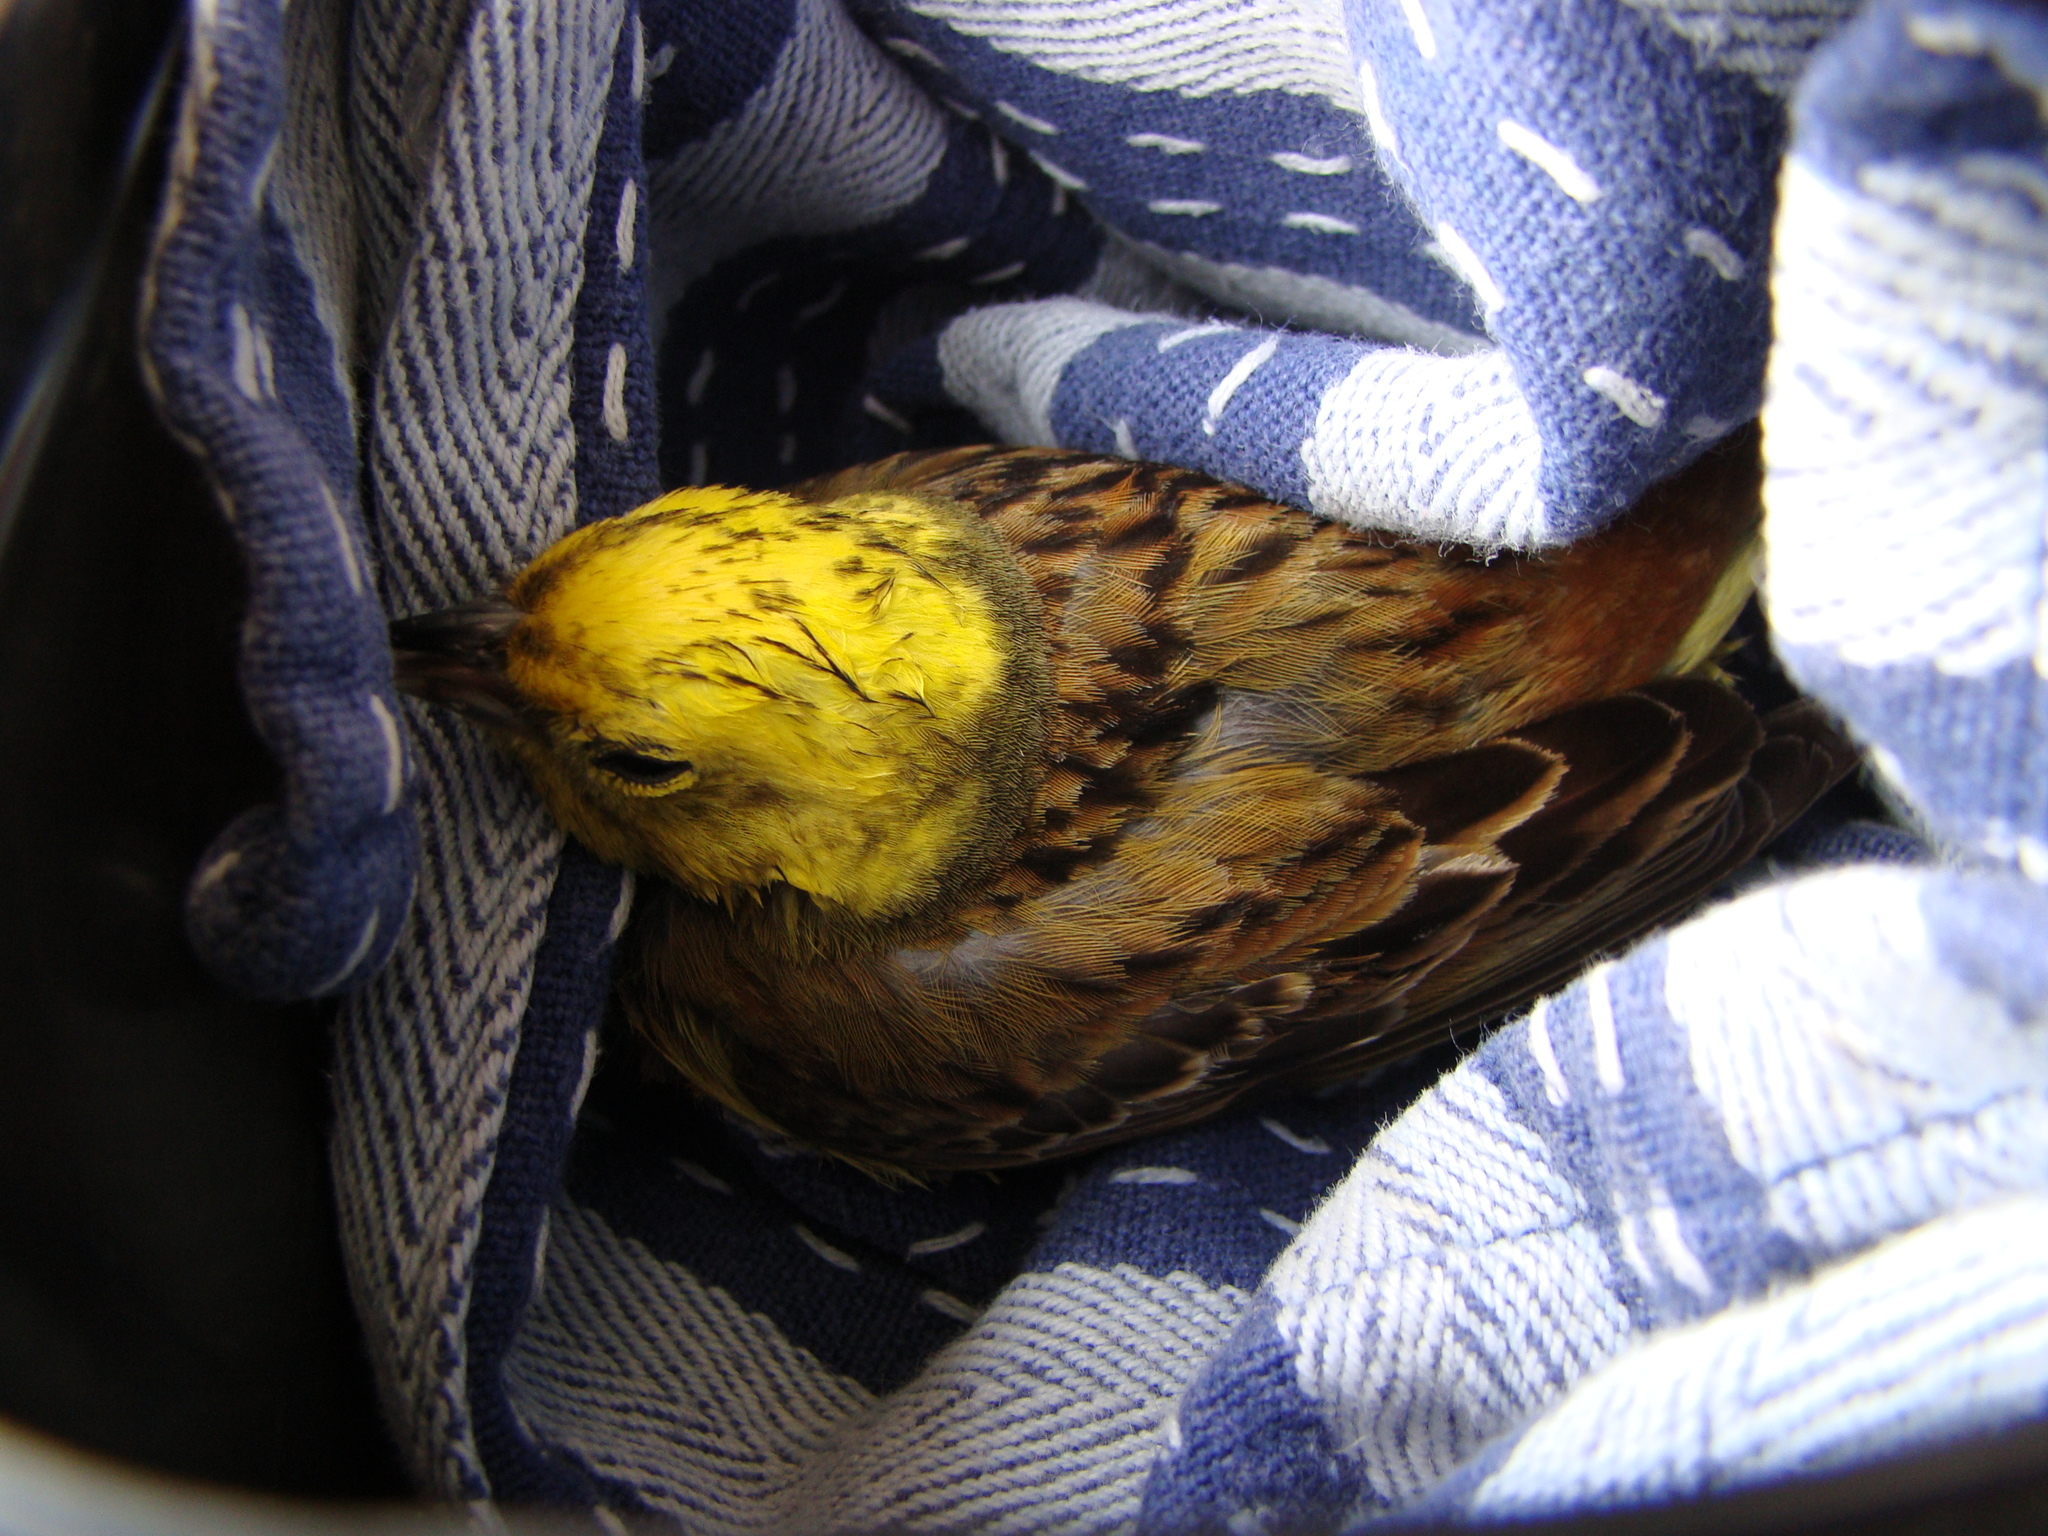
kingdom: Animalia
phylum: Chordata
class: Aves
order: Passeriformes
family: Emberizidae
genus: Emberiza
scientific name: Emberiza citrinella
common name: Yellowhammer
